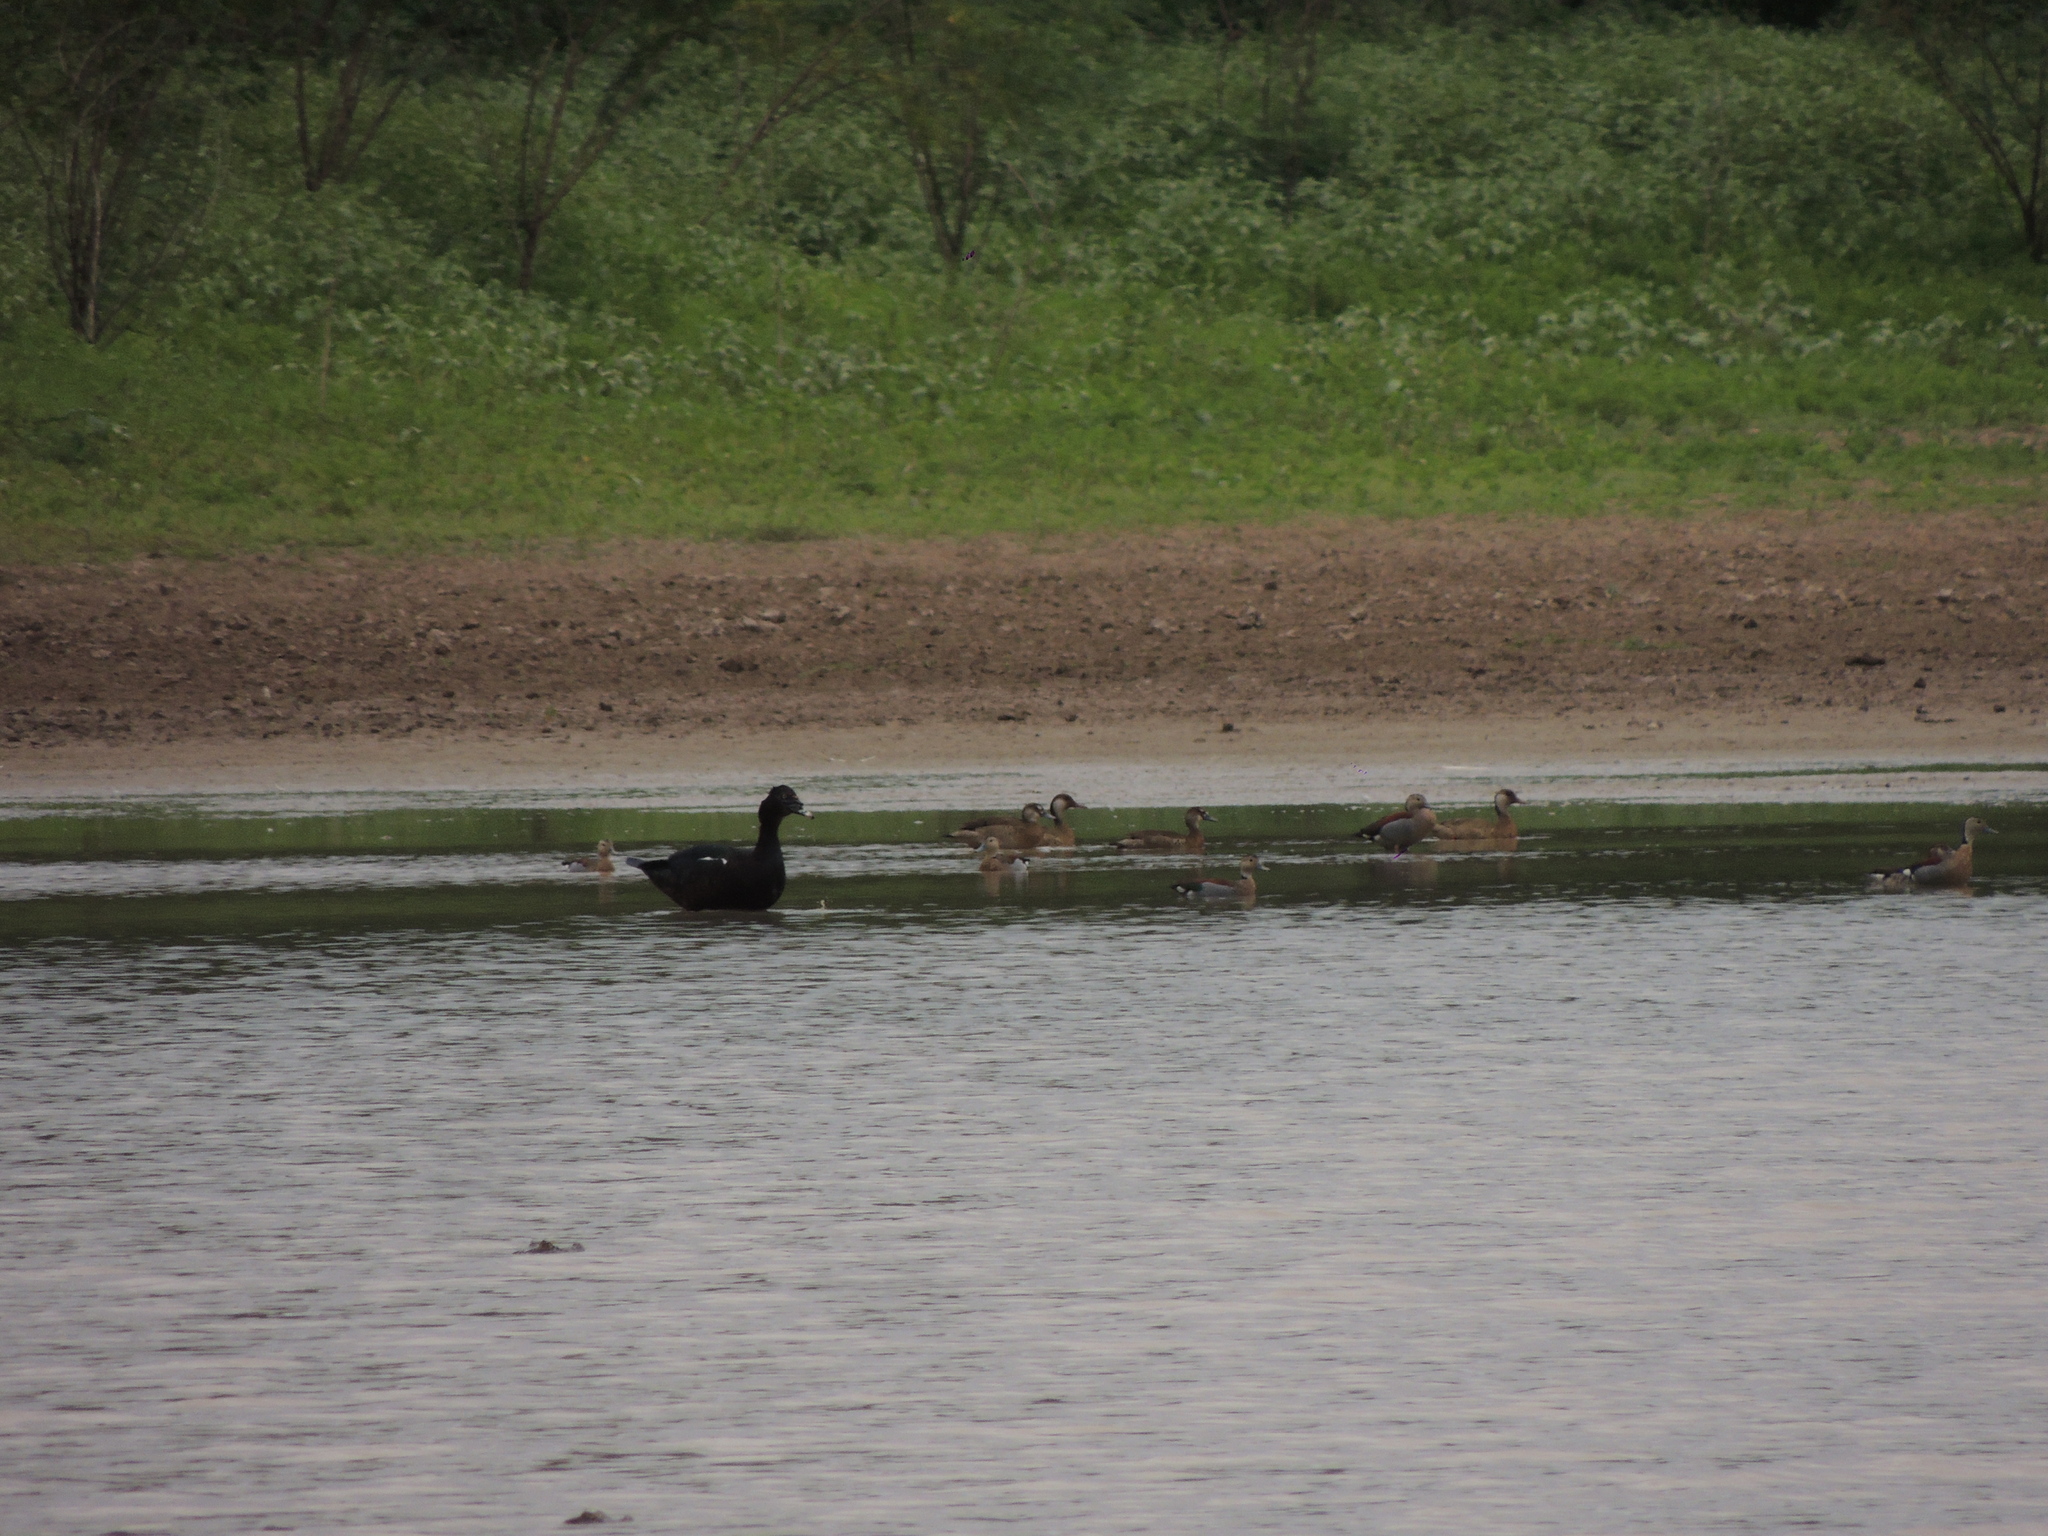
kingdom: Animalia
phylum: Chordata
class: Aves
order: Anseriformes
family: Anatidae
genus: Cairina
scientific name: Cairina moschata
